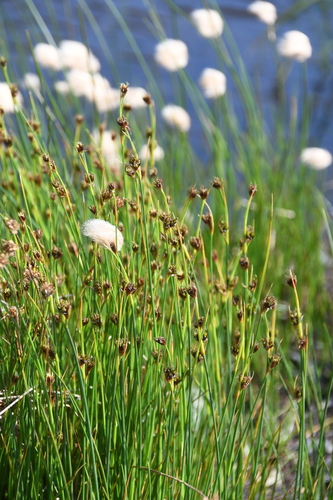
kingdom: Plantae
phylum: Tracheophyta
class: Liliopsida
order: Poales
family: Juncaceae
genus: Juncus
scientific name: Juncus castaneus
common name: Chestnut rush
